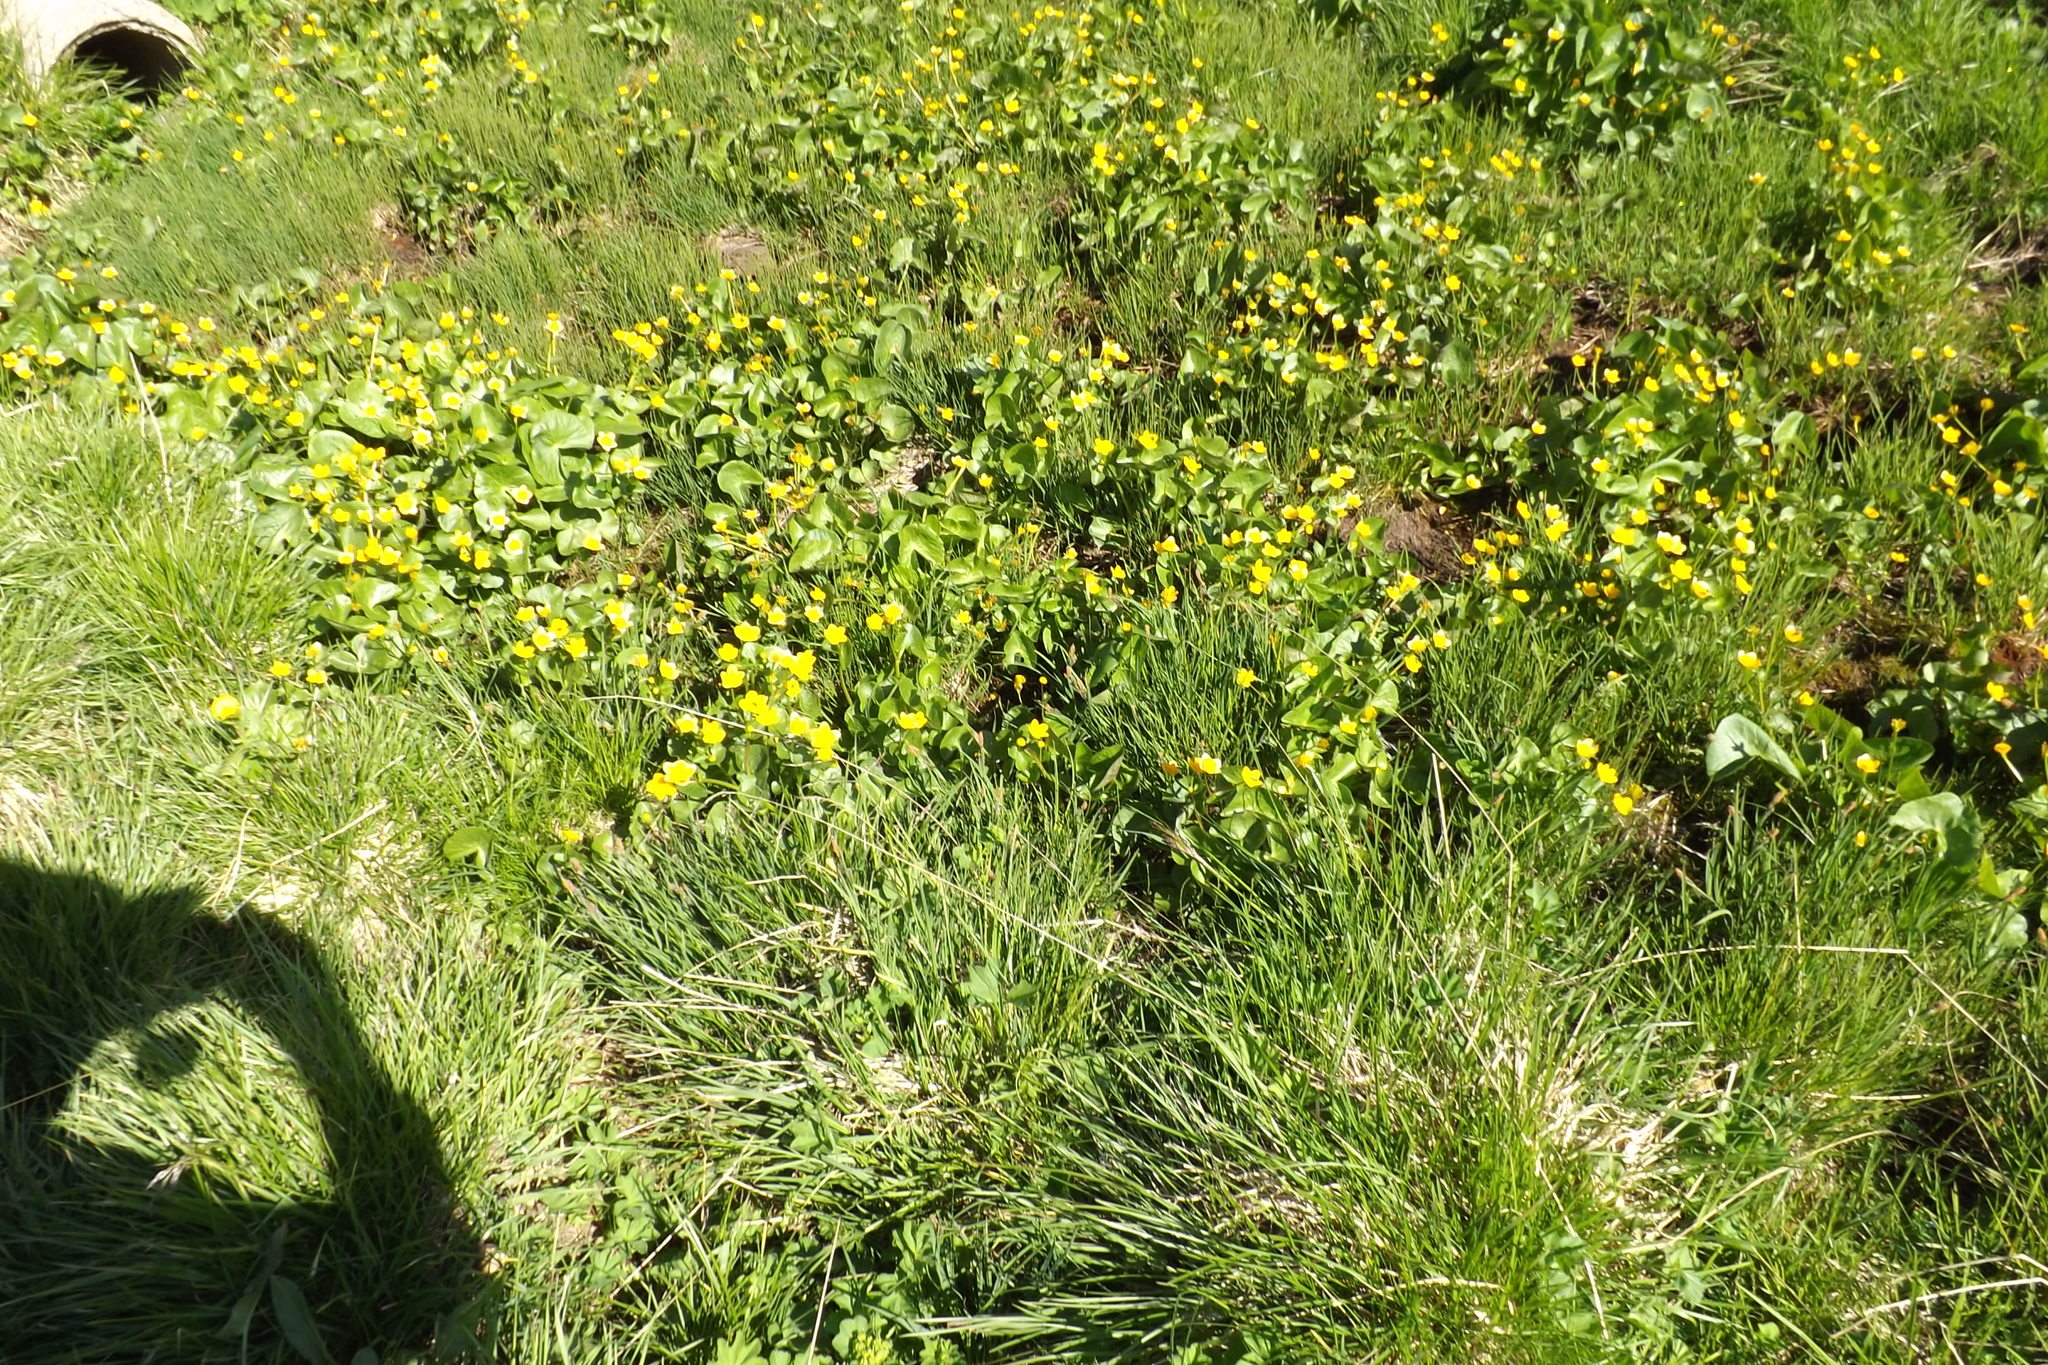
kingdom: Plantae
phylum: Tracheophyta
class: Magnoliopsida
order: Ranunculales
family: Ranunculaceae
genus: Caltha
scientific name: Caltha palustris
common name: Marsh marigold
